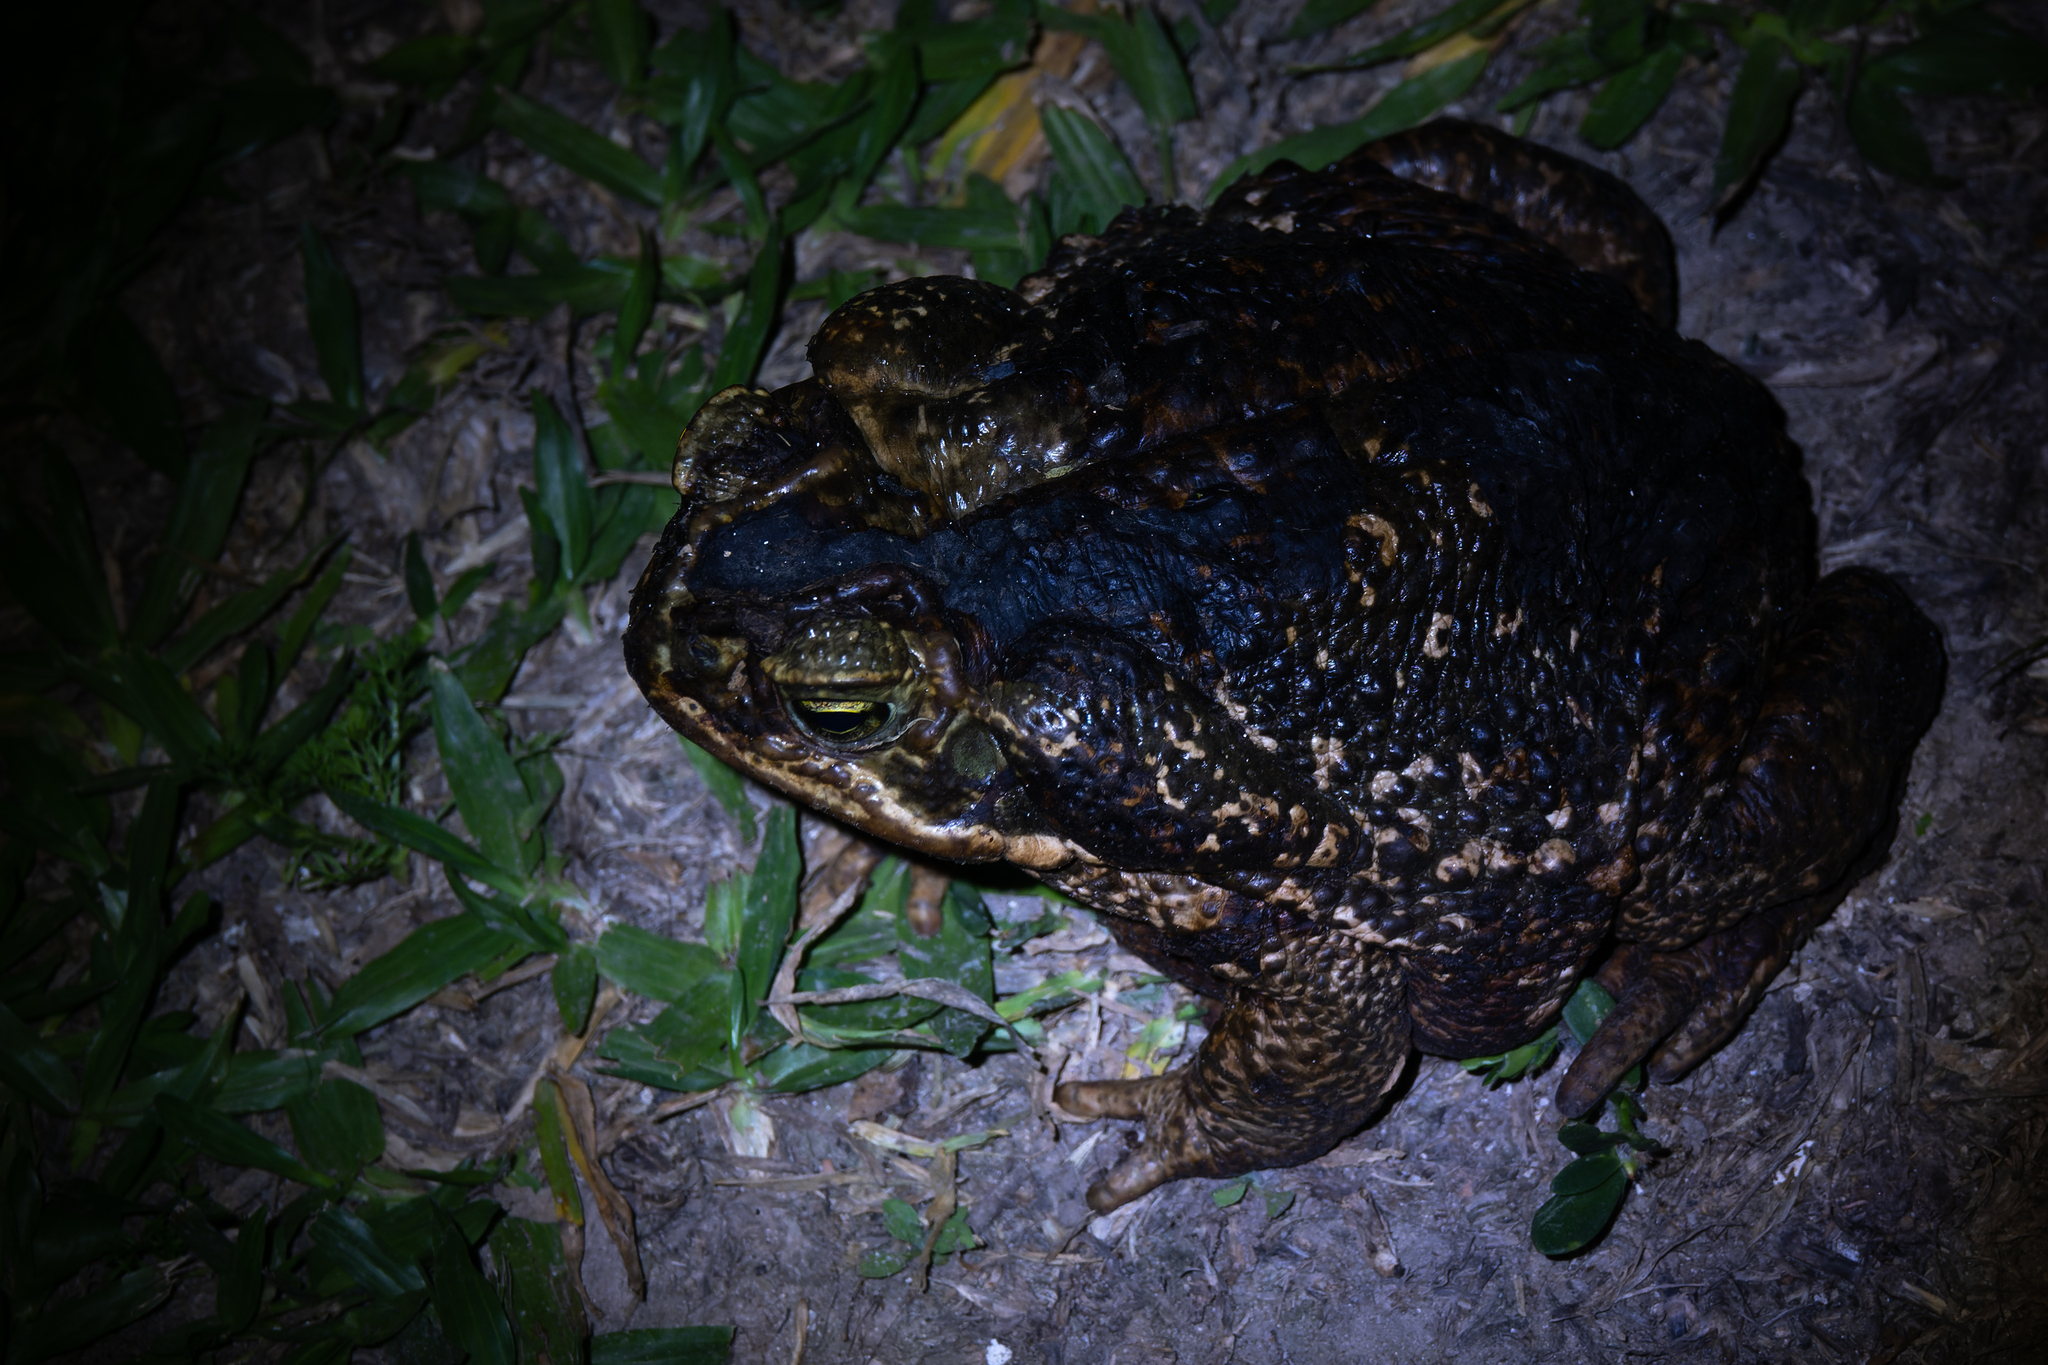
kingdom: Animalia
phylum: Chordata
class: Amphibia
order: Anura
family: Bufonidae
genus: Rhinella
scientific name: Rhinella diptycha
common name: Cope's toad
